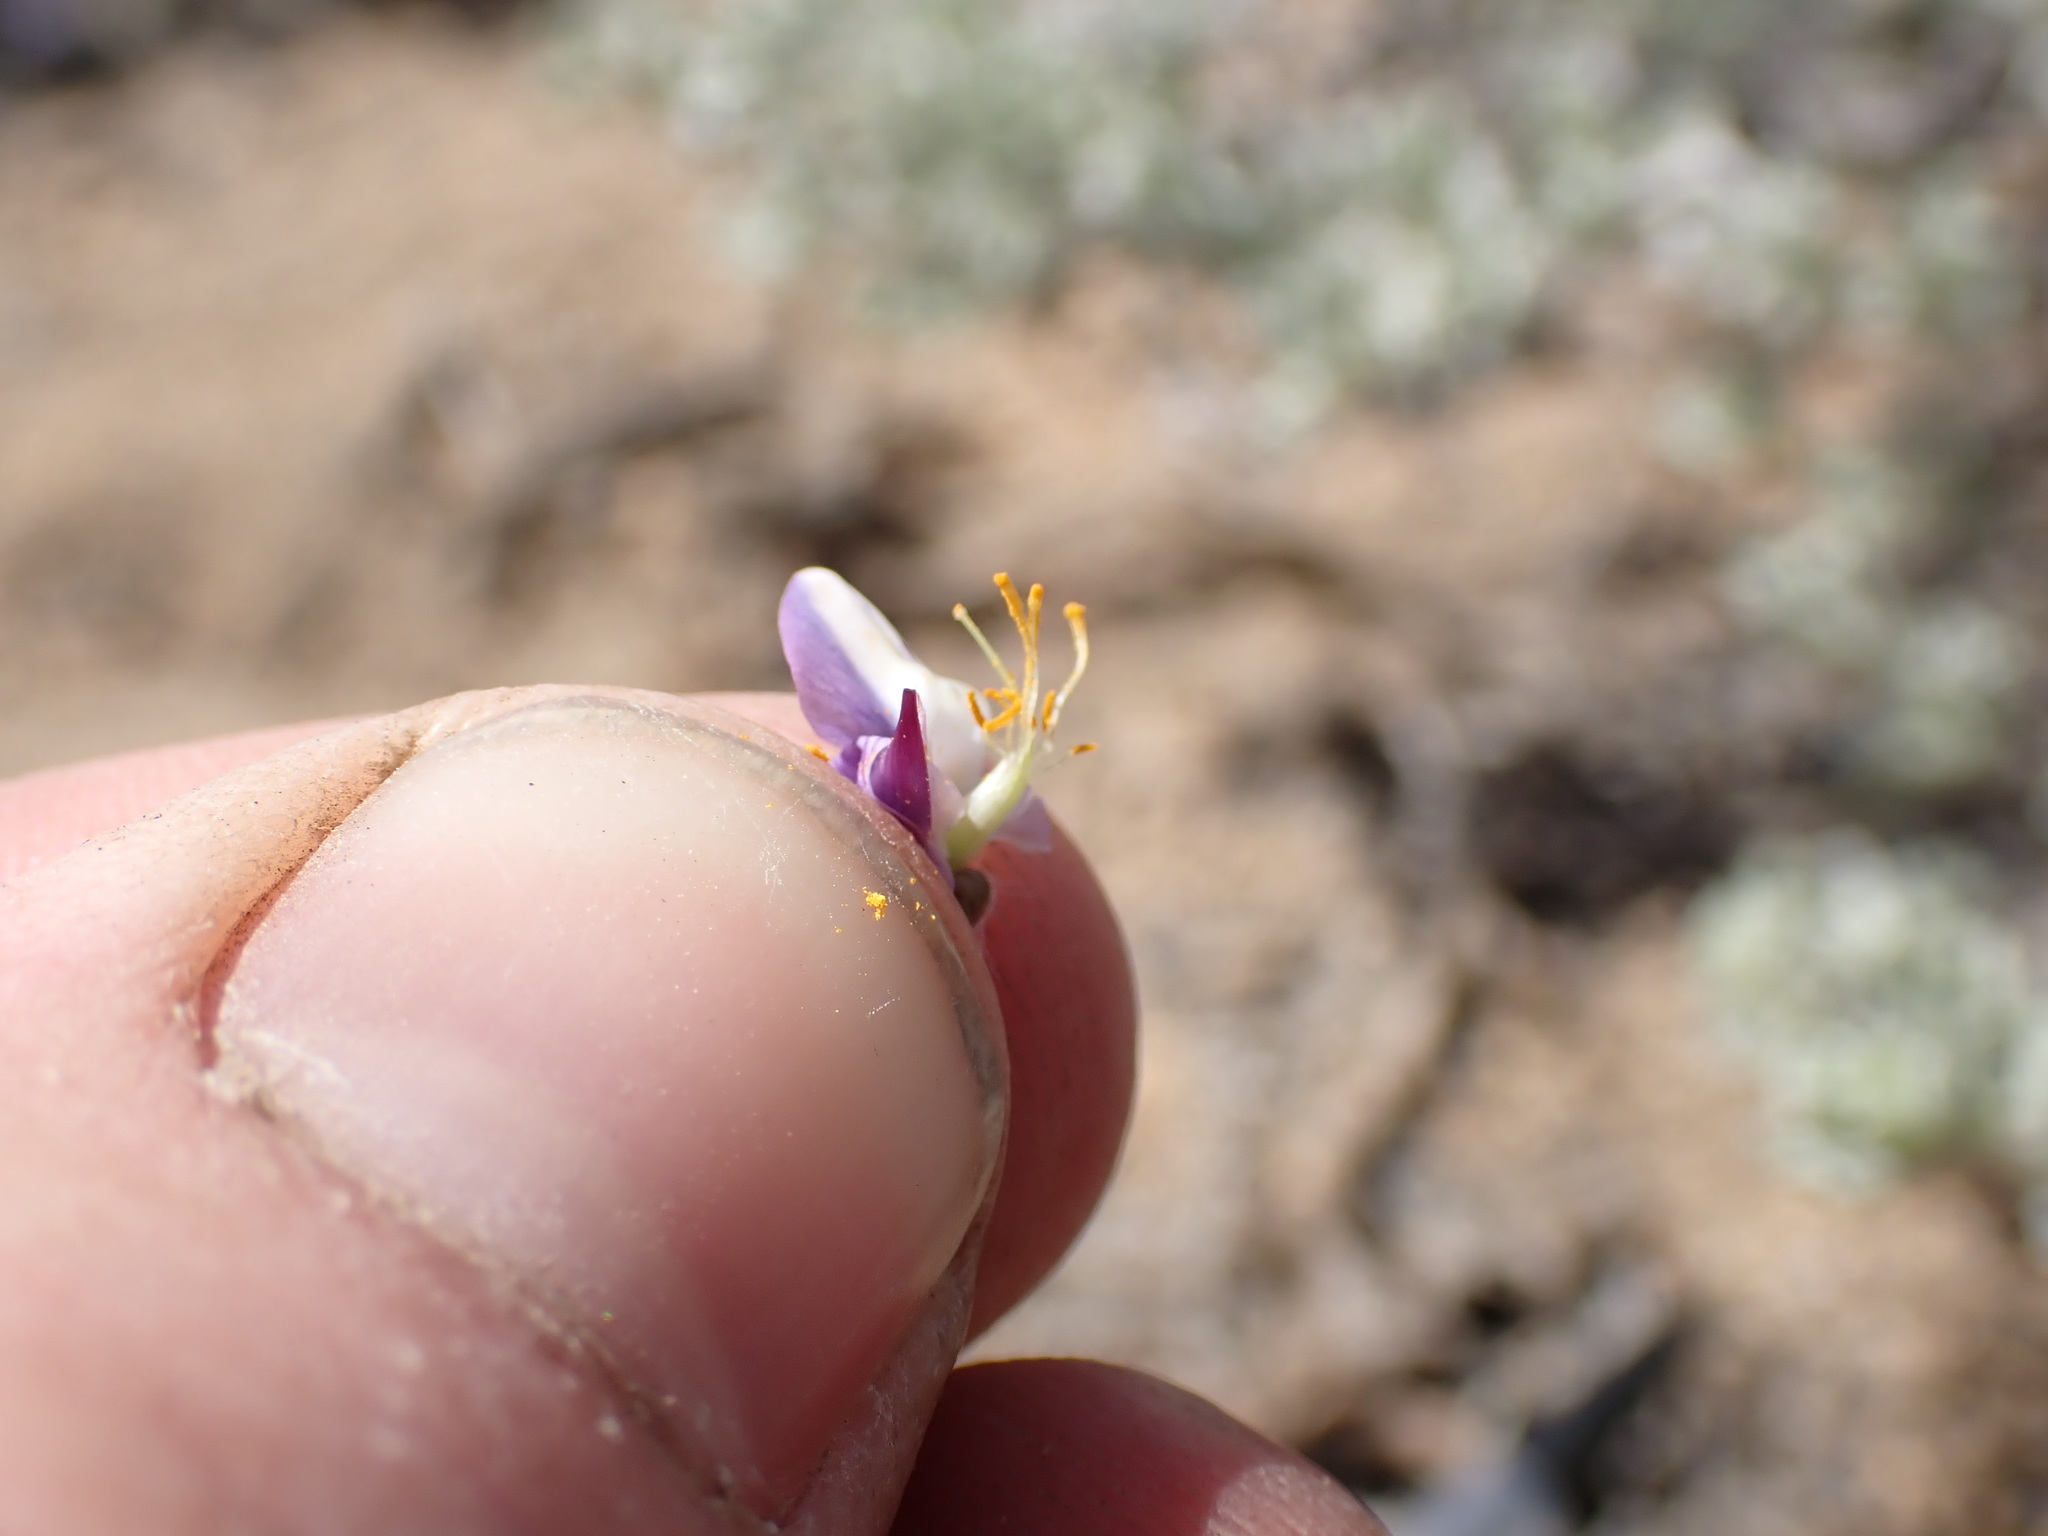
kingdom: Plantae
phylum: Tracheophyta
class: Magnoliopsida
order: Fabales
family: Fabaceae
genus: Lupinus
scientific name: Lupinus breweri
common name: Brewer's lupine
